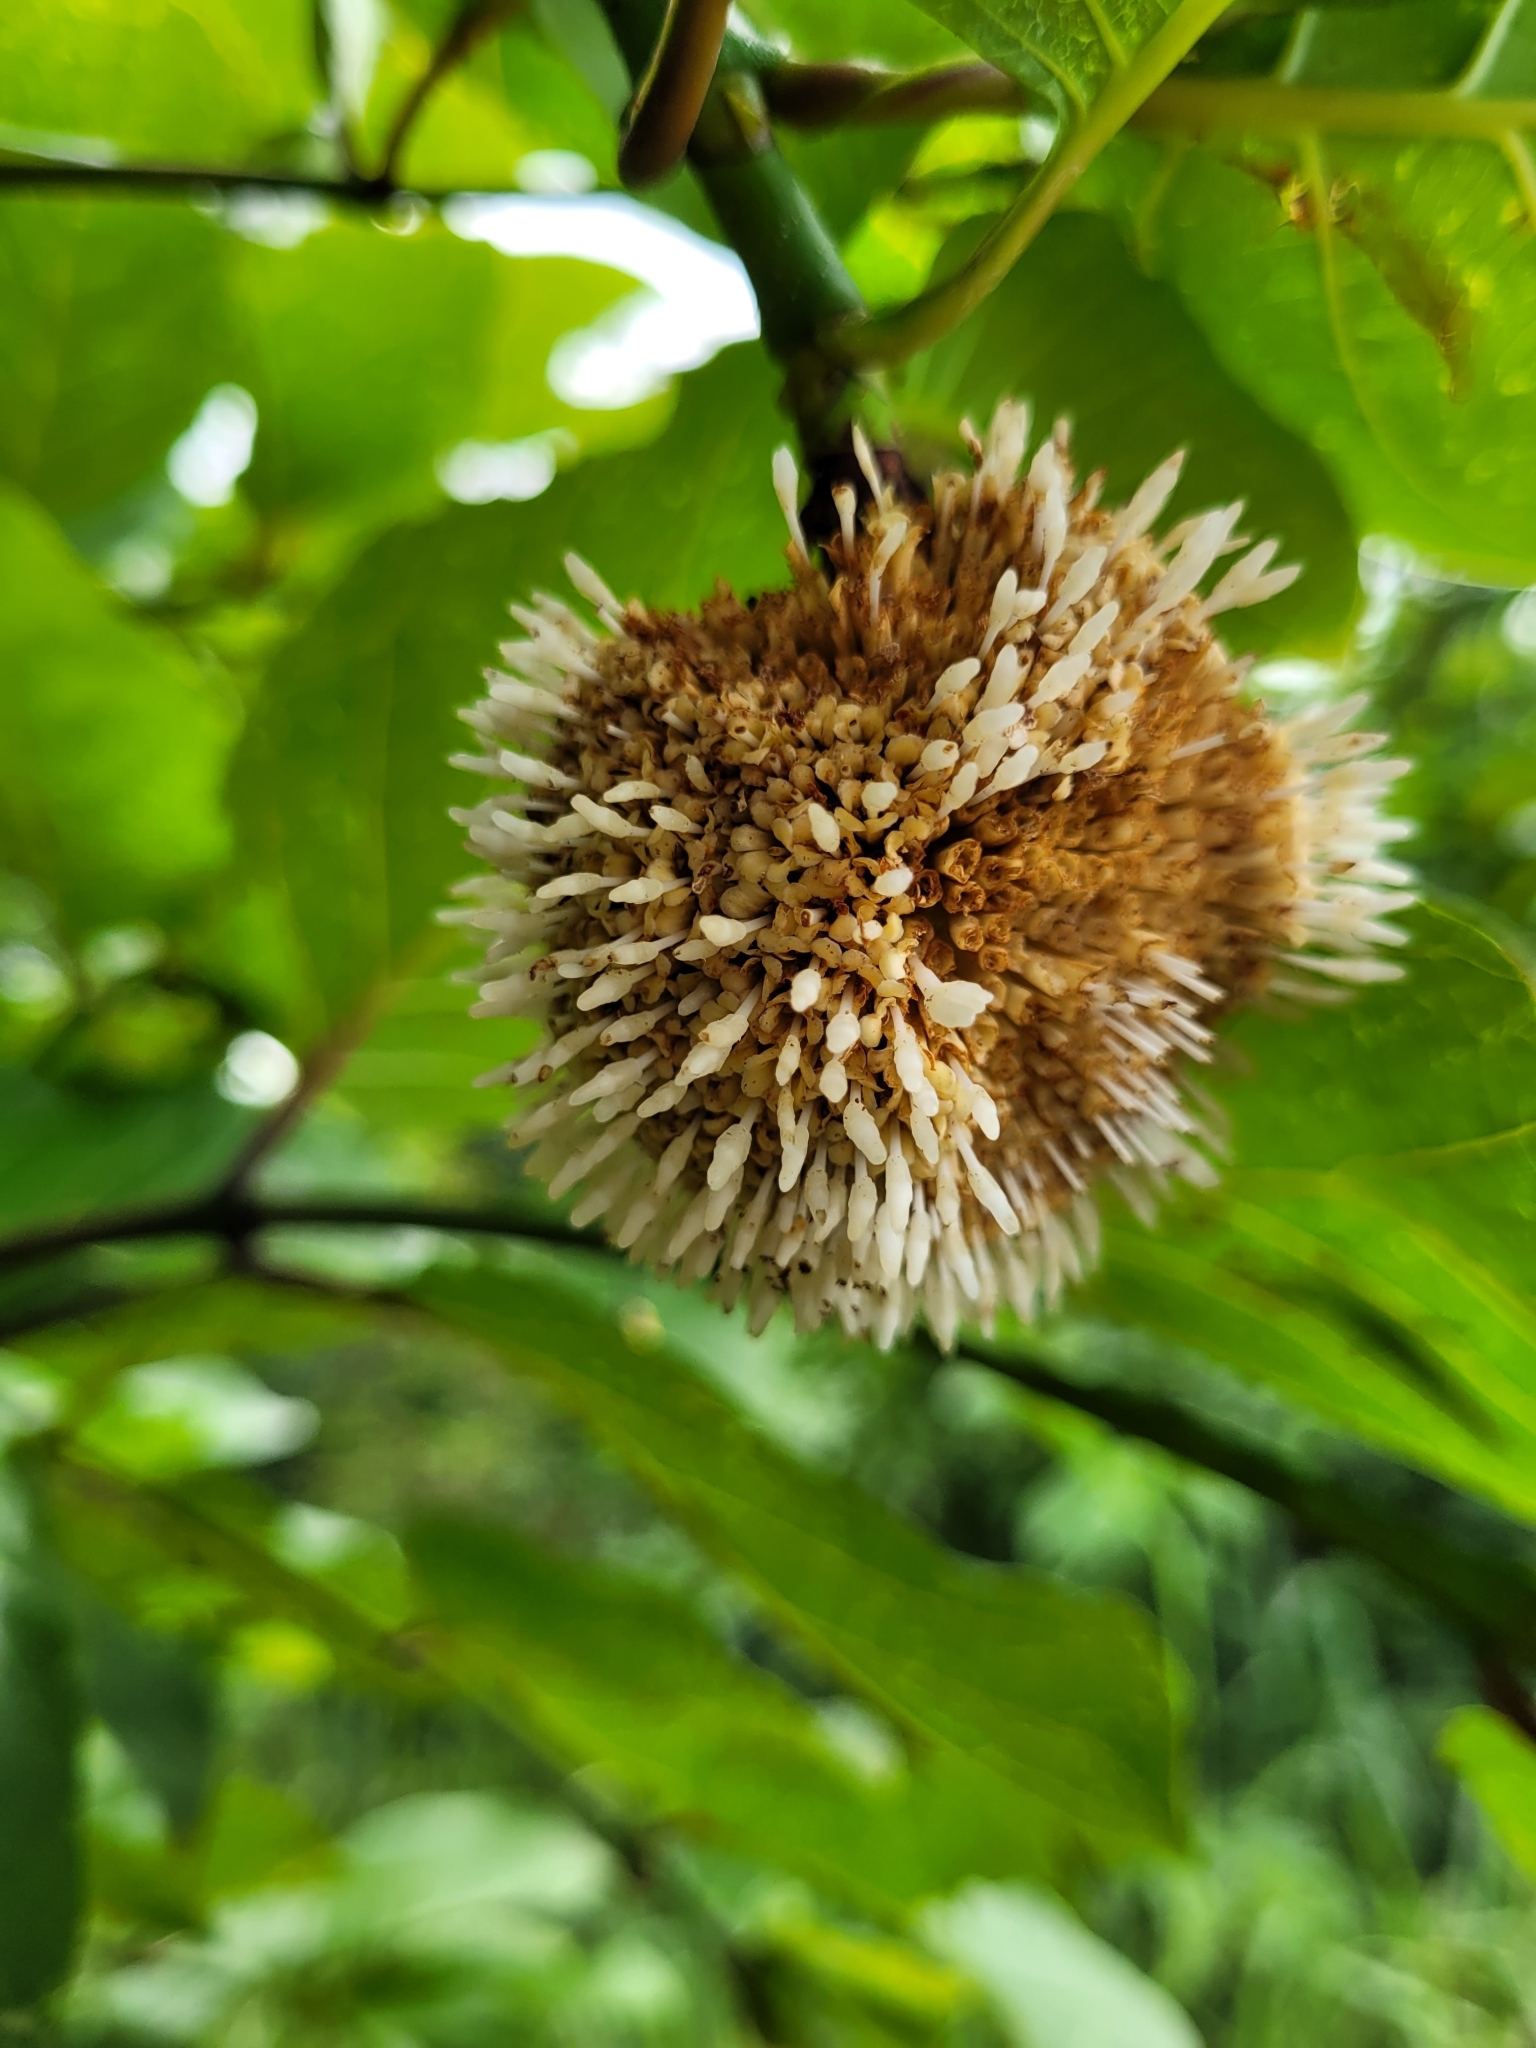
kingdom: Plantae
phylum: Tracheophyta
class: Magnoliopsida
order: Gentianales
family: Rubiaceae
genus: Nauclea
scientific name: Nauclea latifolia
